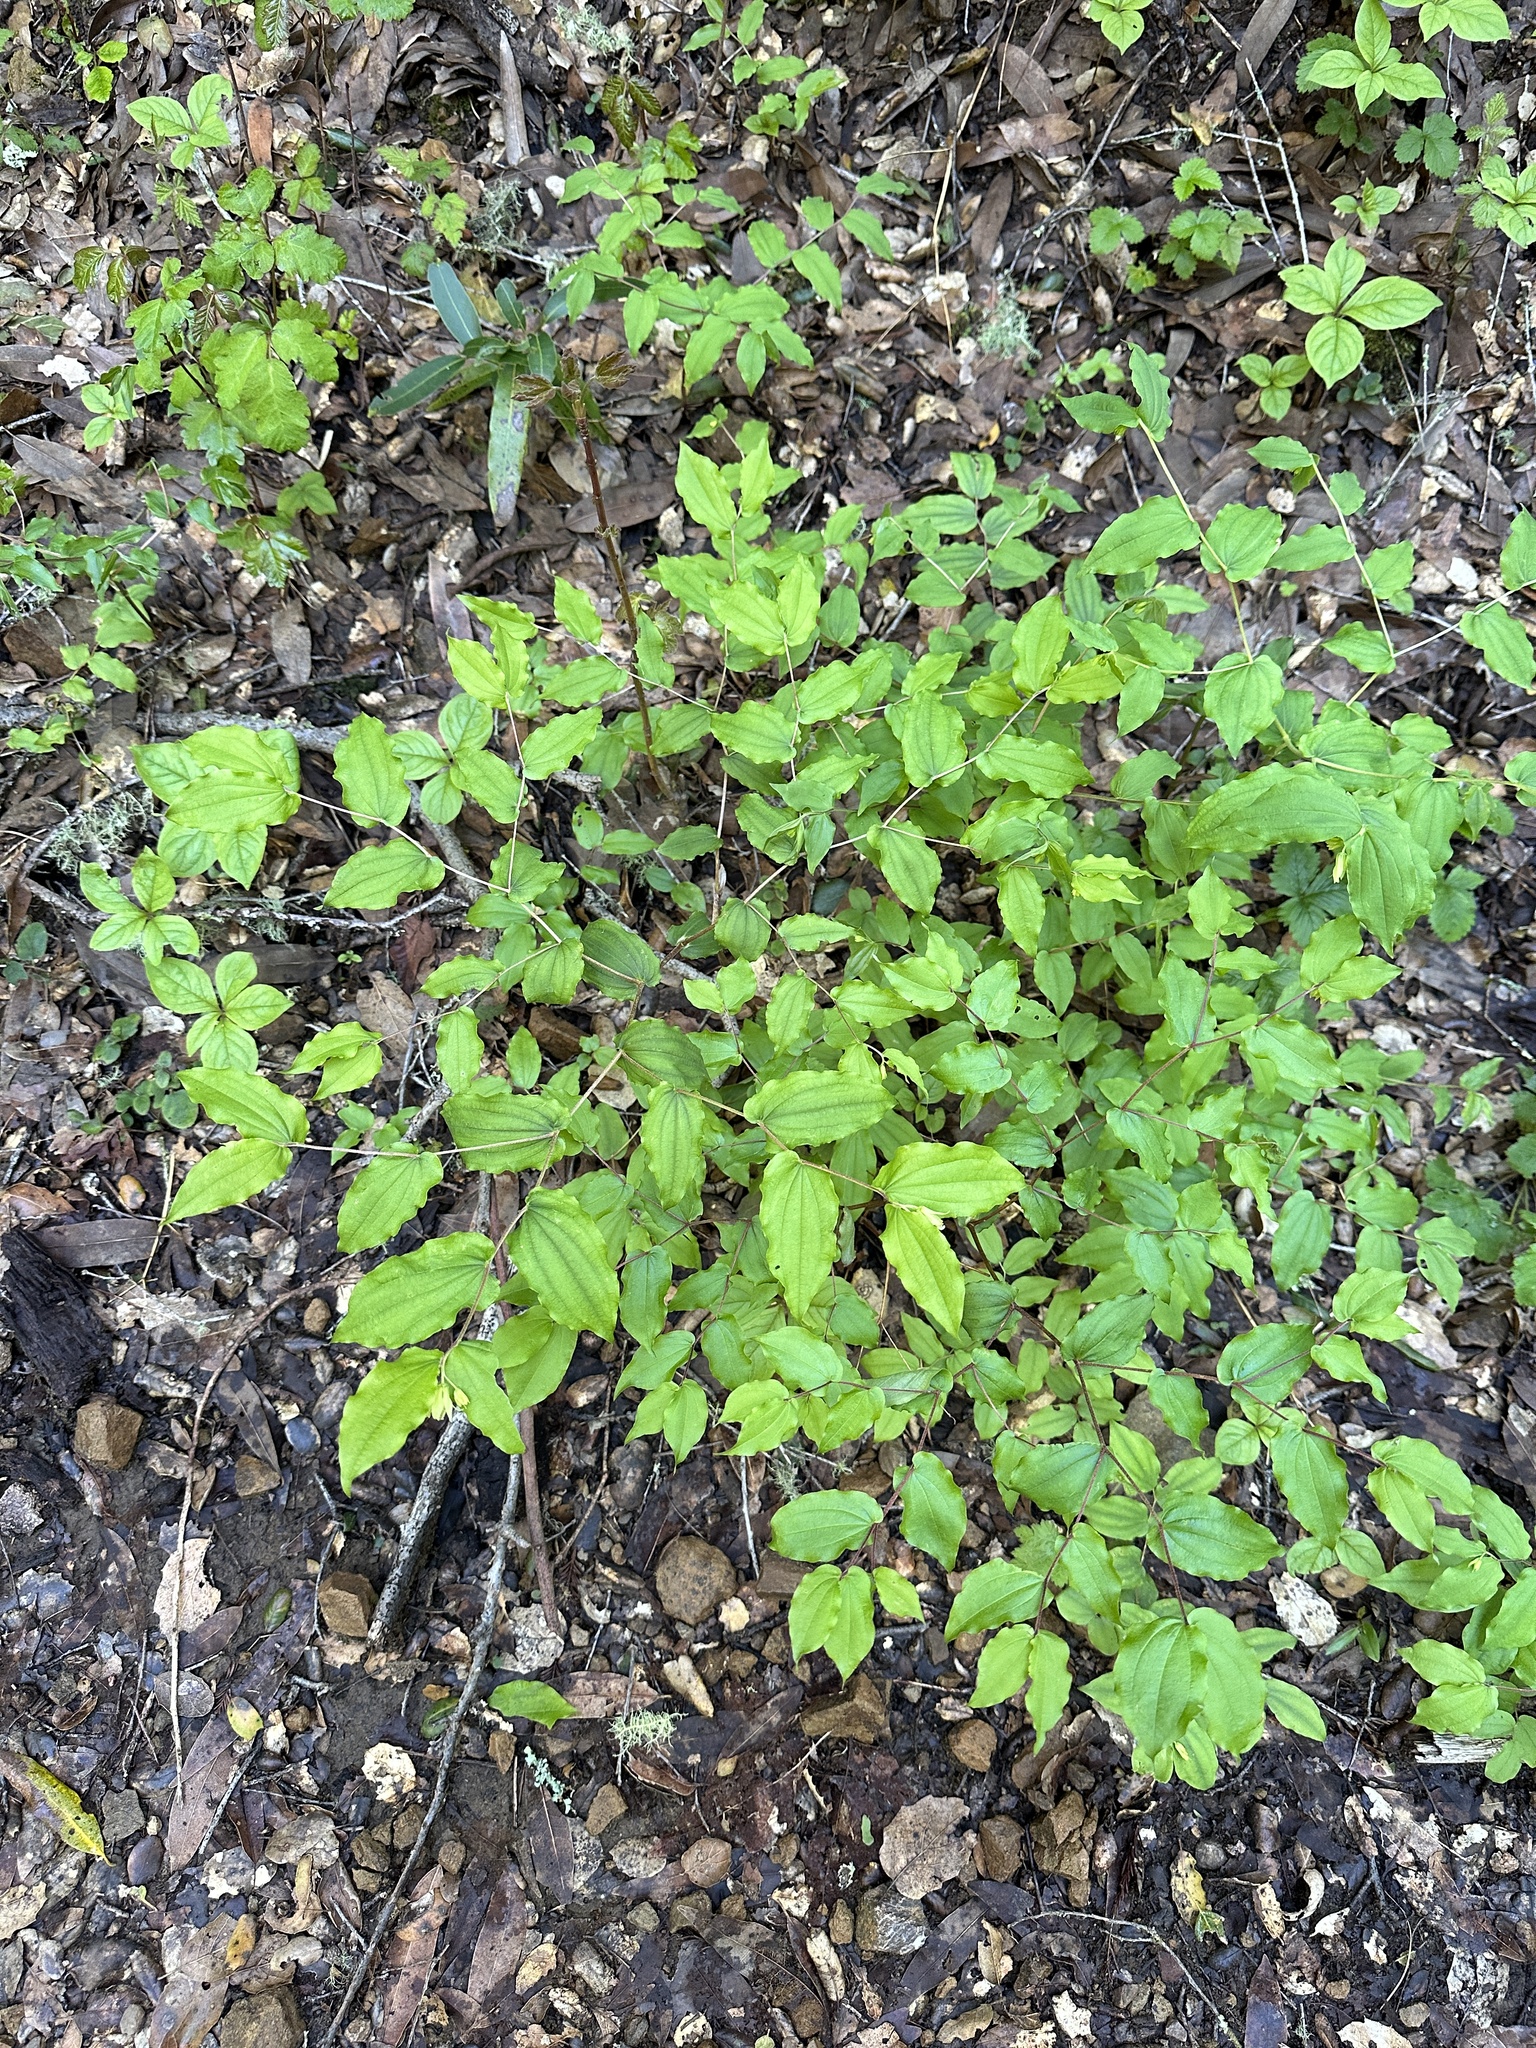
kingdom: Plantae
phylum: Tracheophyta
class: Liliopsida
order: Liliales
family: Liliaceae
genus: Prosartes
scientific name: Prosartes hookeri
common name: Fairy-bells
